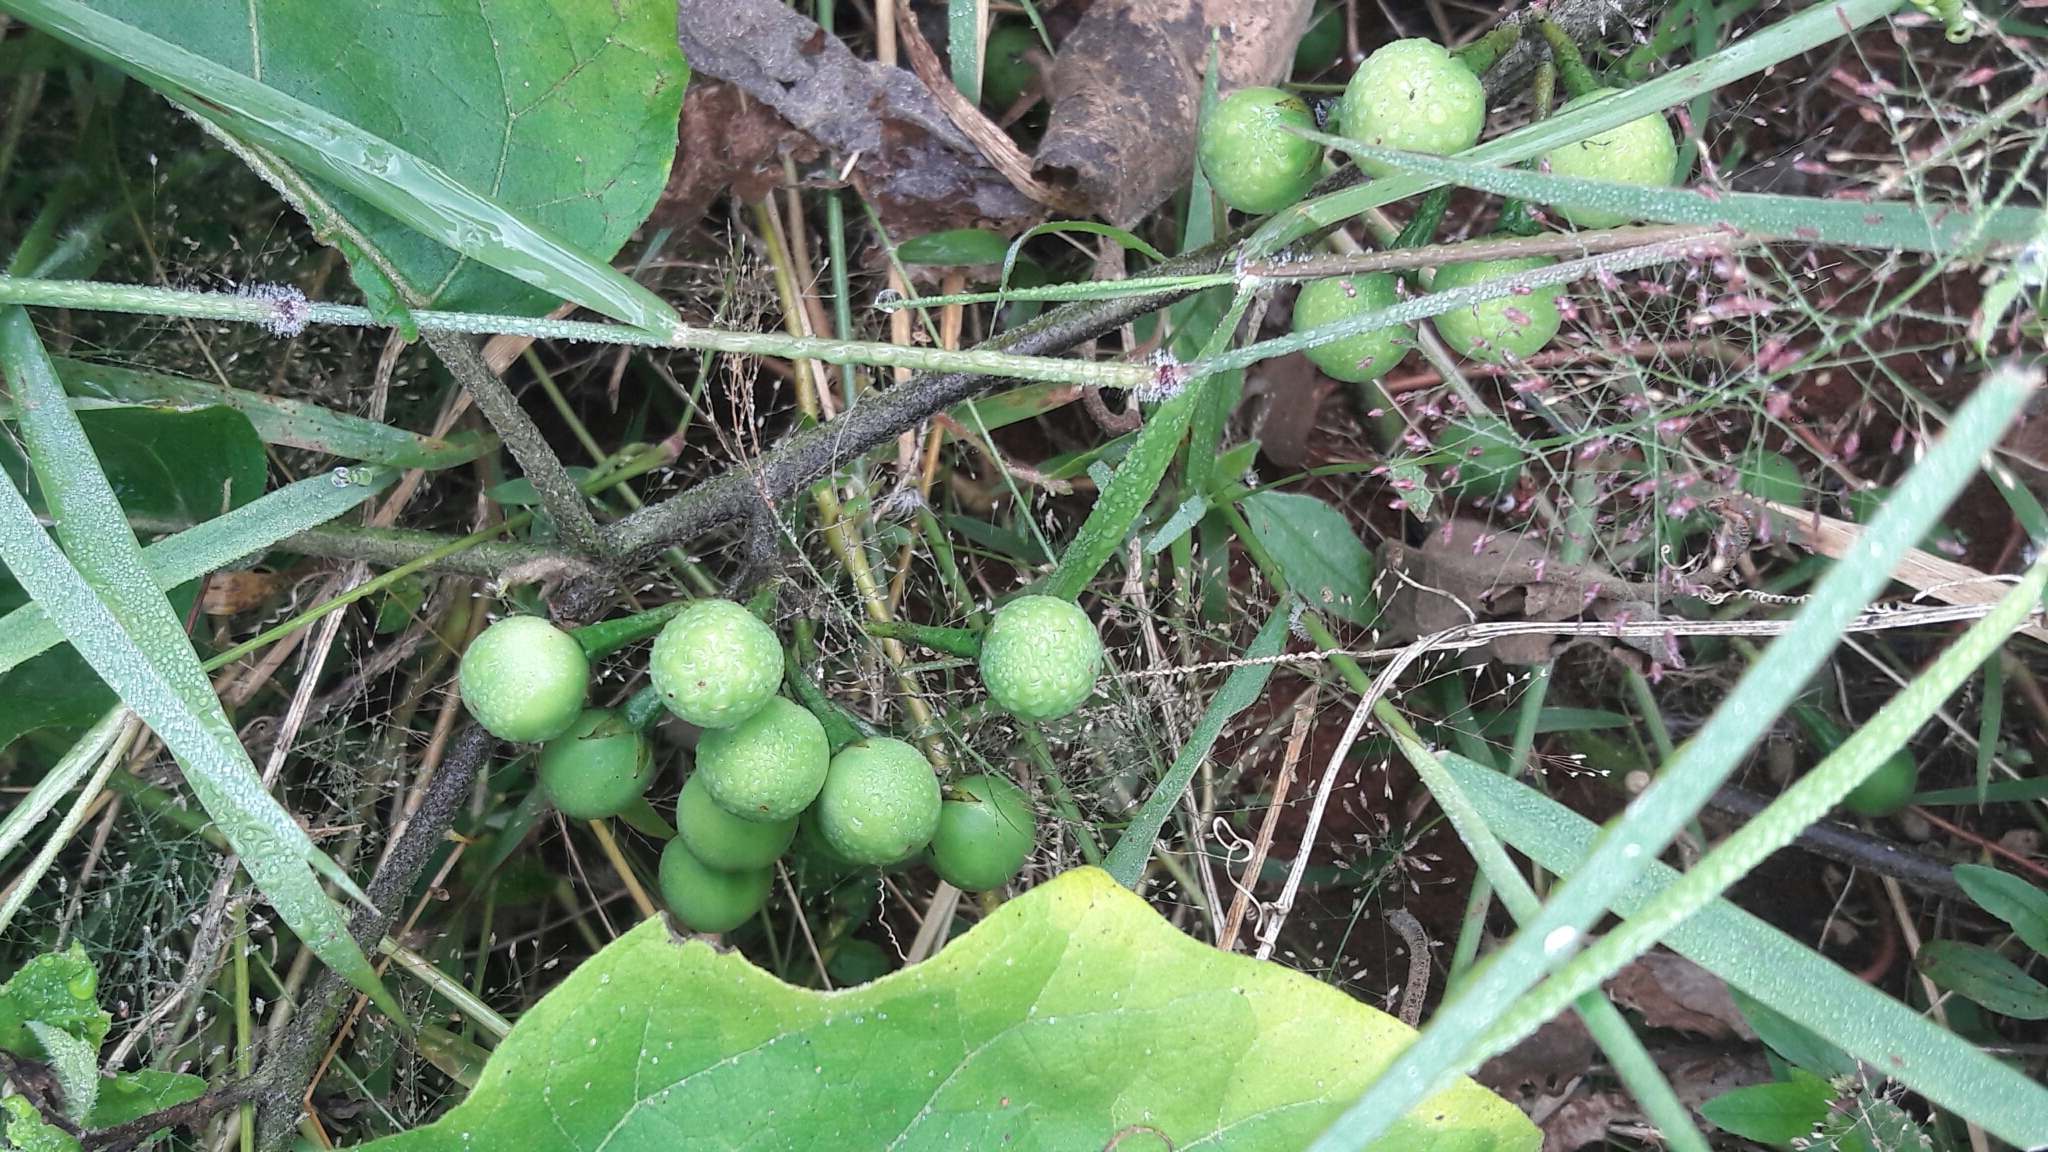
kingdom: Plantae
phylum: Tracheophyta
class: Magnoliopsida
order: Solanales
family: Solanaceae
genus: Solanum
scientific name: Solanum torvum
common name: Turkey berry
